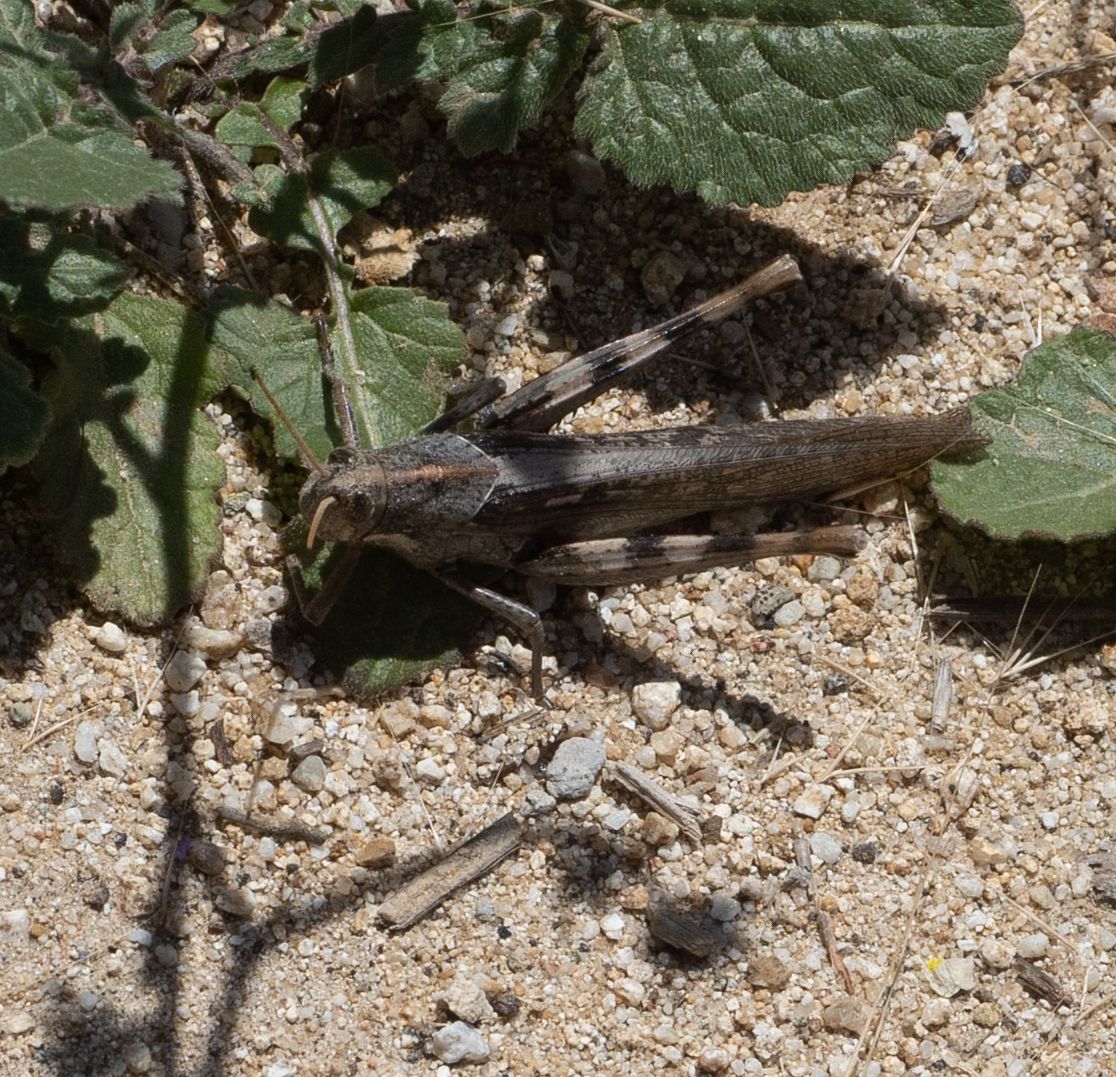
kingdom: Animalia
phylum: Arthropoda
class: Insecta
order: Orthoptera
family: Acrididae
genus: Schistocerca
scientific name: Schistocerca nitens
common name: Vagrant grasshopper
